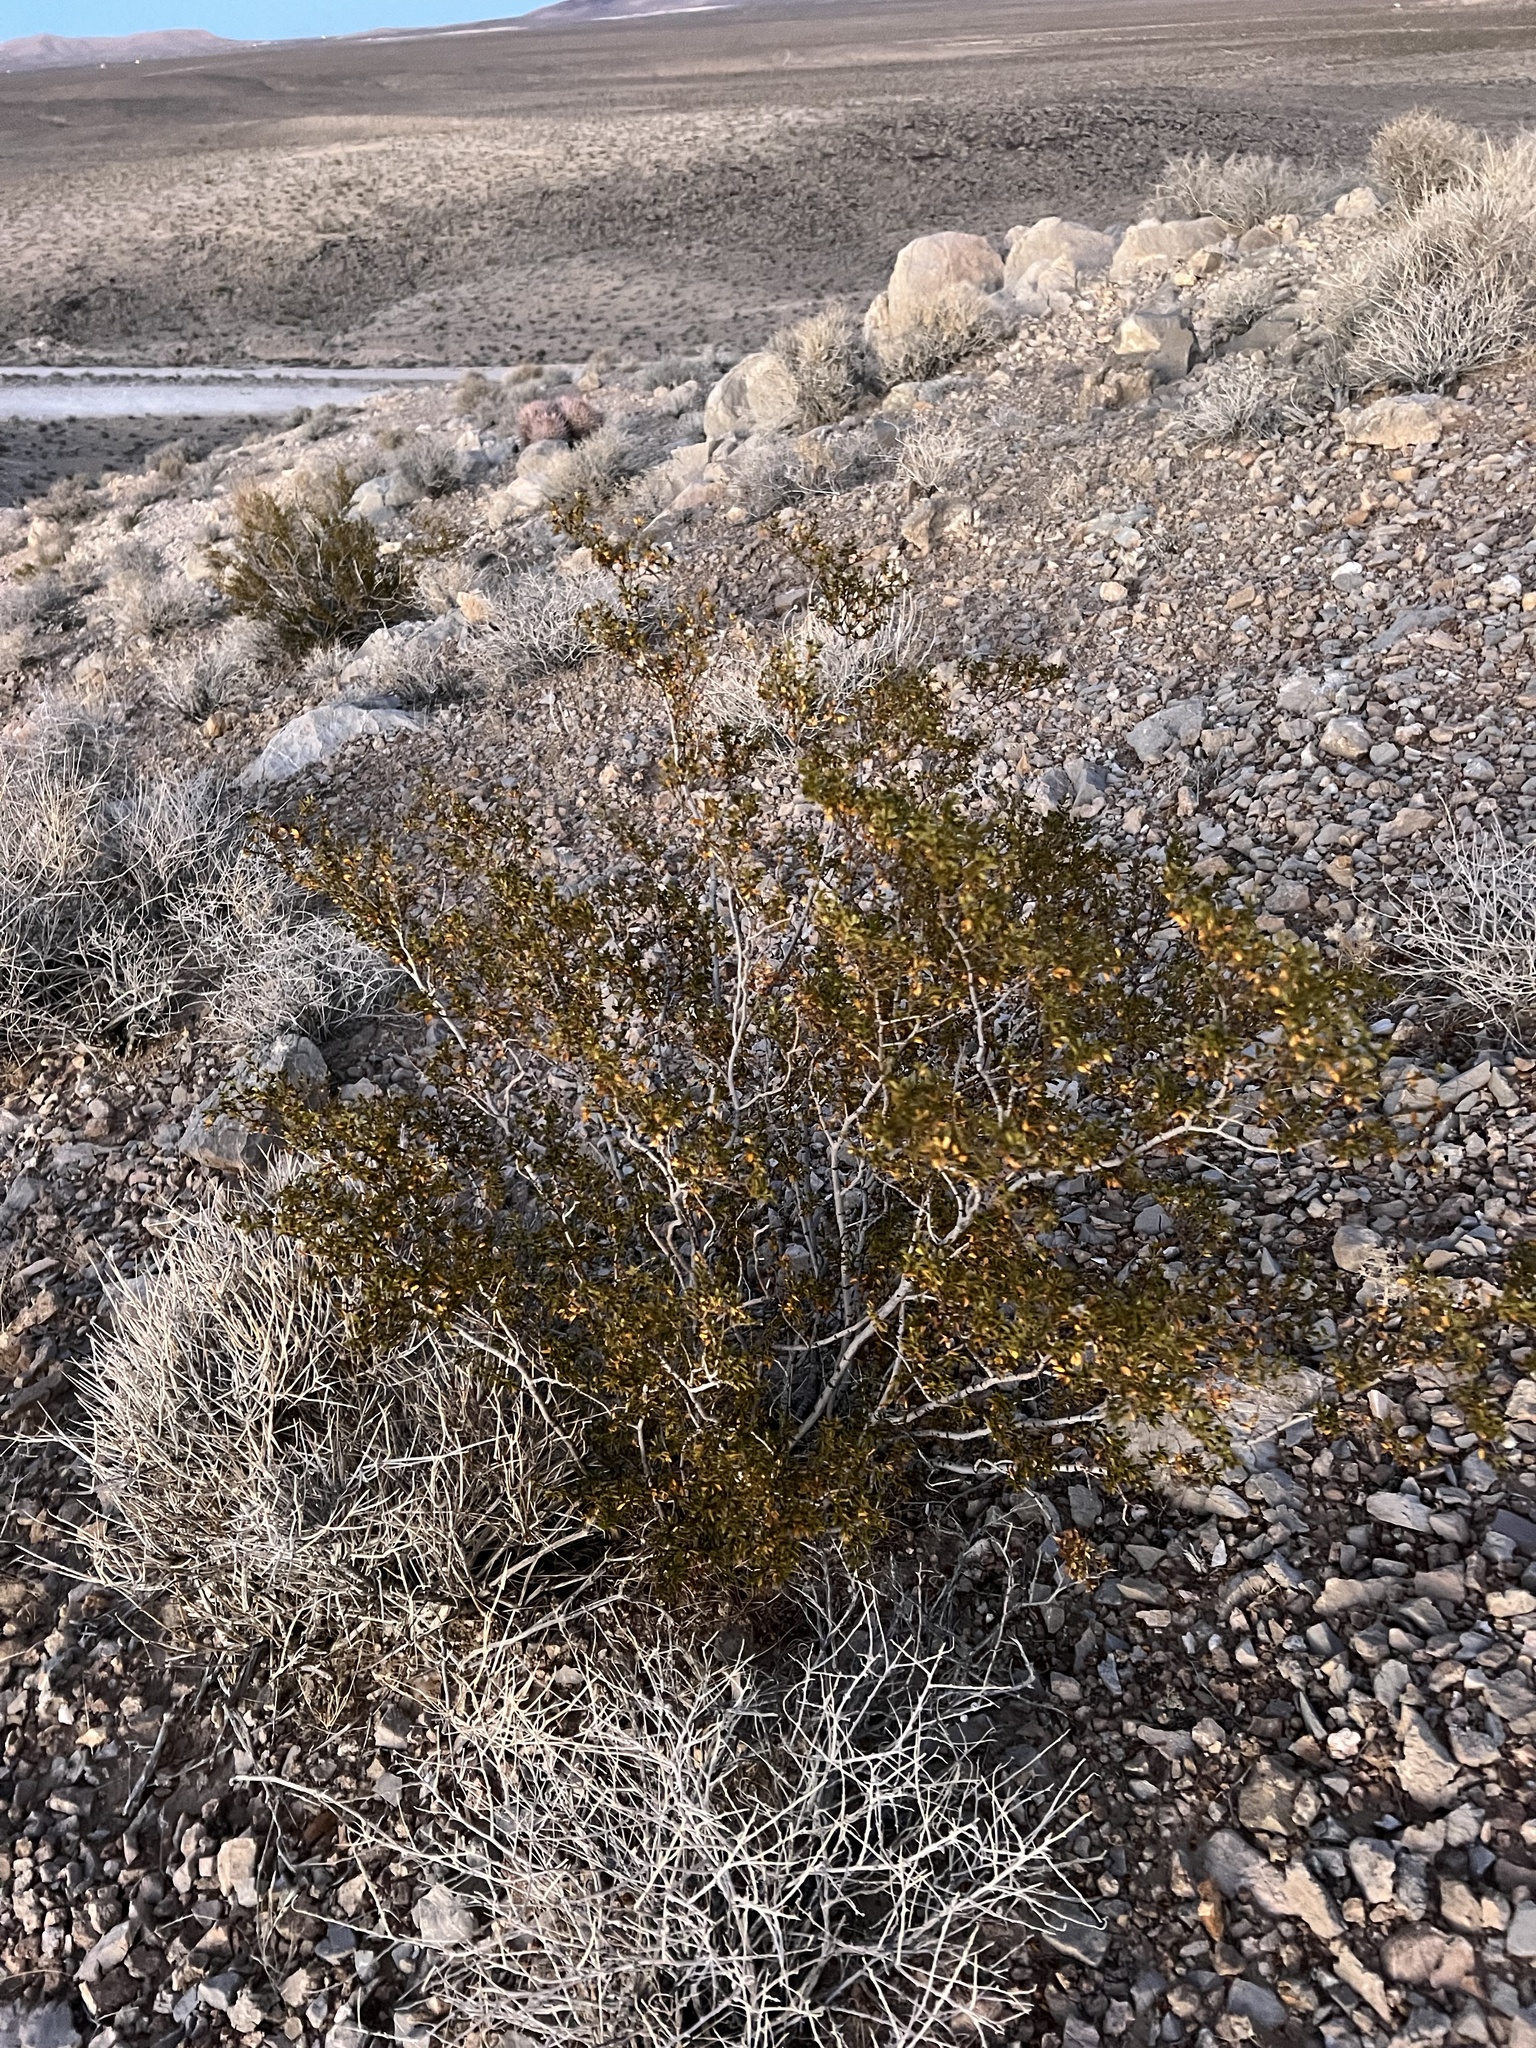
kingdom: Plantae
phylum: Tracheophyta
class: Magnoliopsida
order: Zygophyllales
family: Zygophyllaceae
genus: Larrea
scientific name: Larrea tridentata
